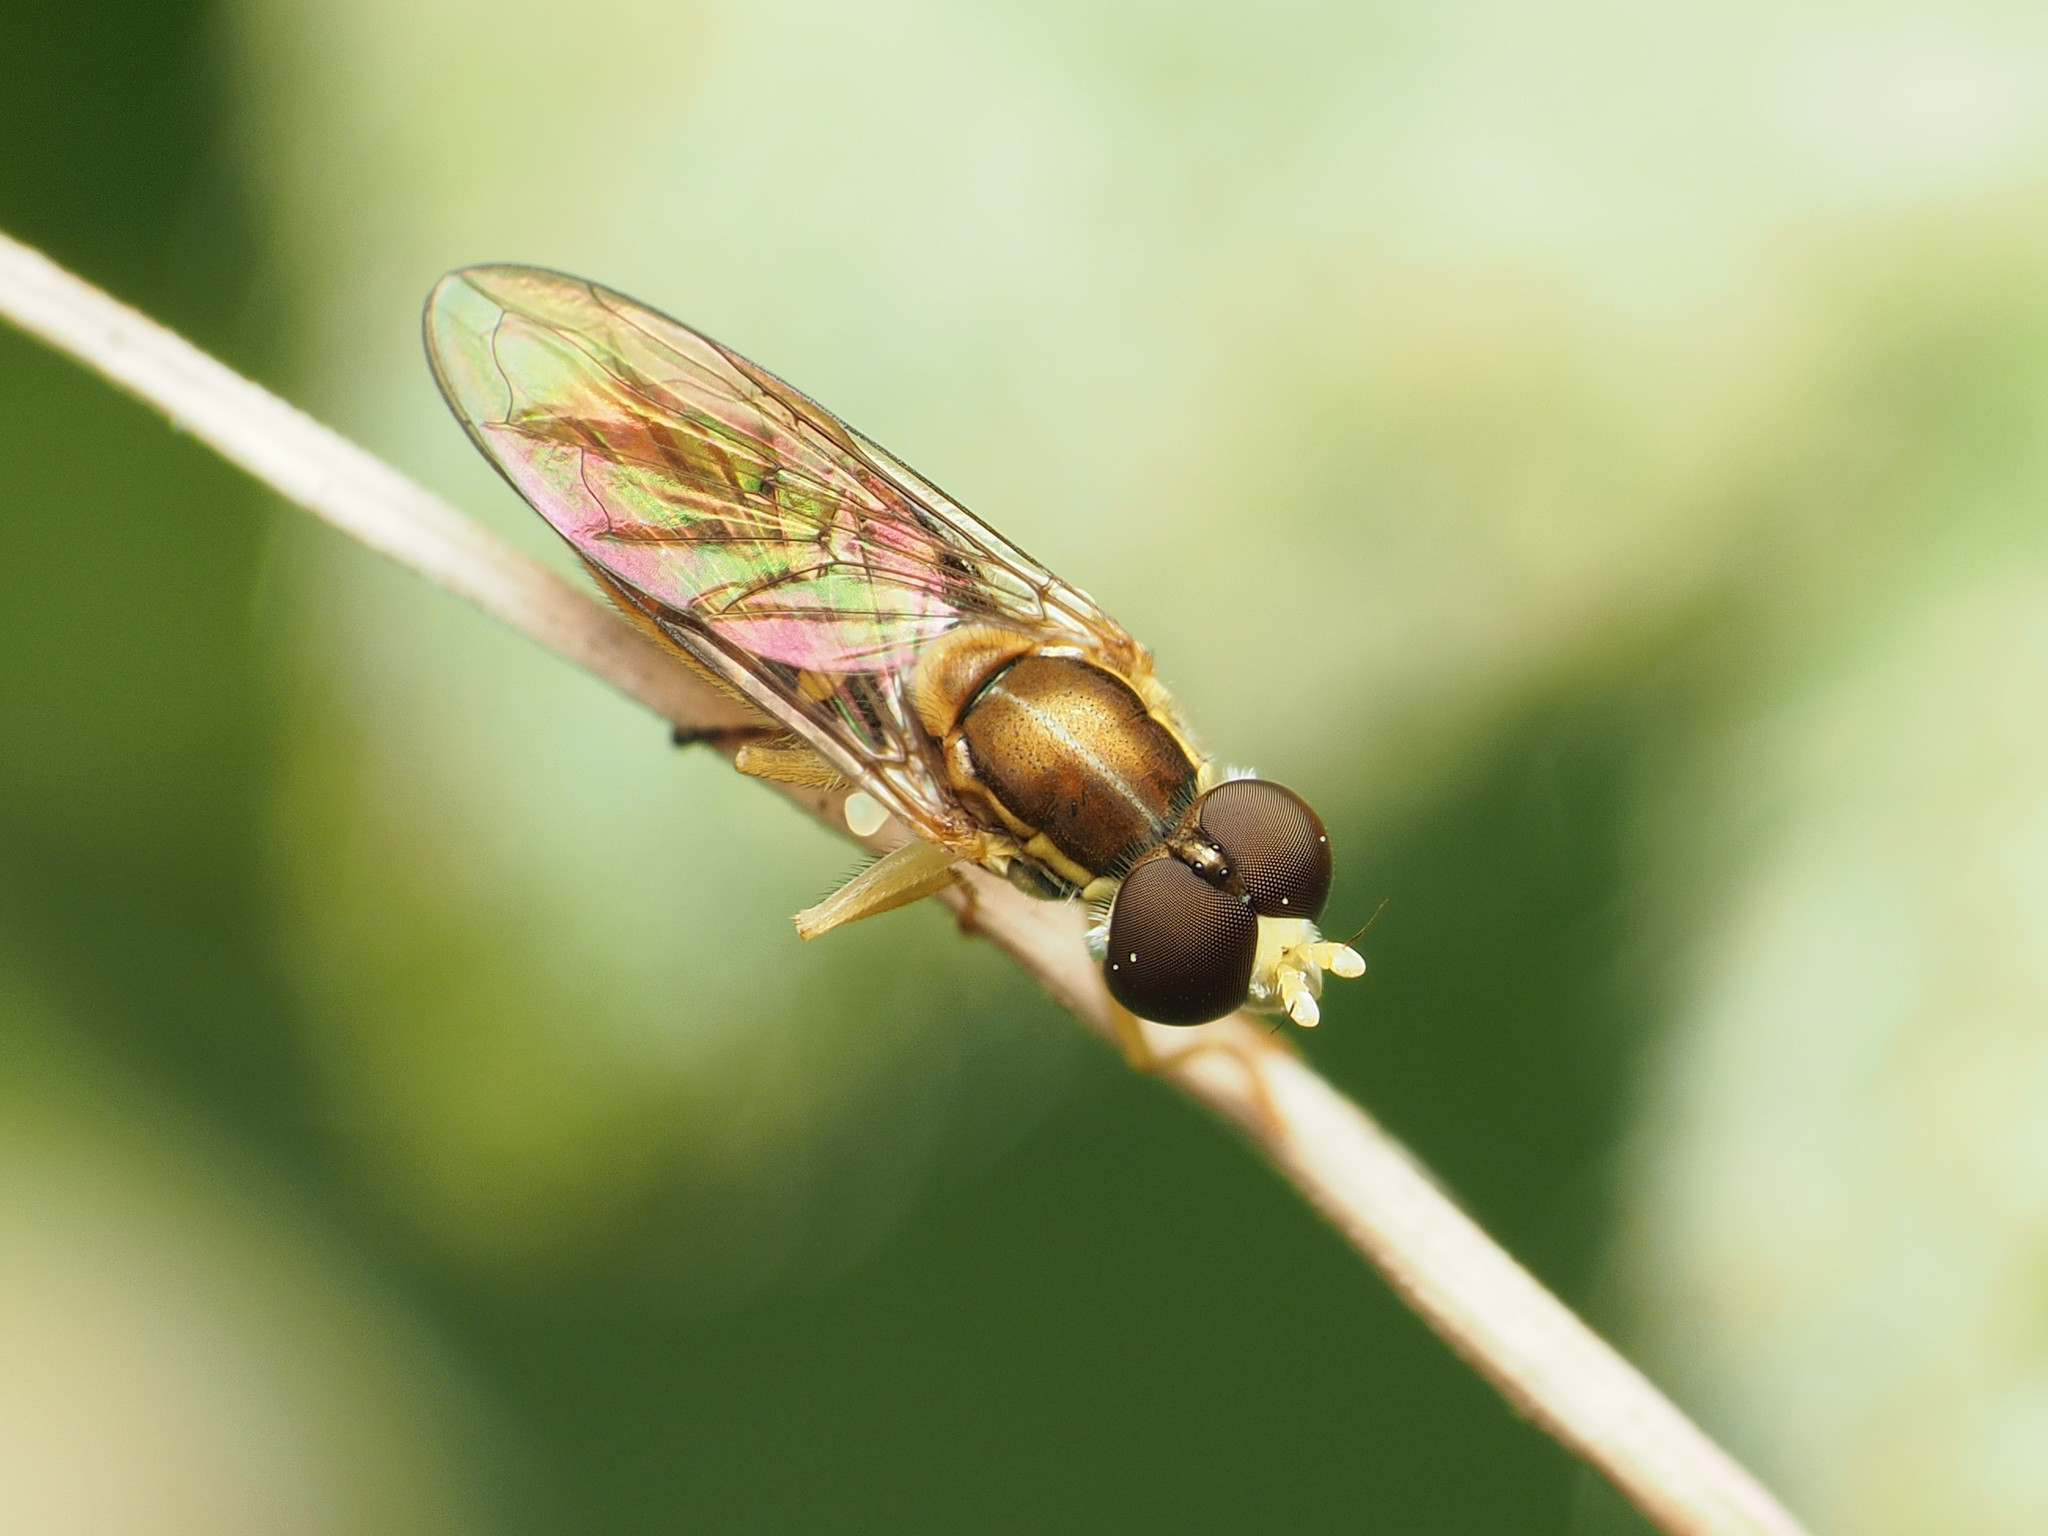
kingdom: Animalia
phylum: Arthropoda
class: Insecta
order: Diptera
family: Syrphidae
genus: Toxomerus
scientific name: Toxomerus marginatus
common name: Syrphid fly
